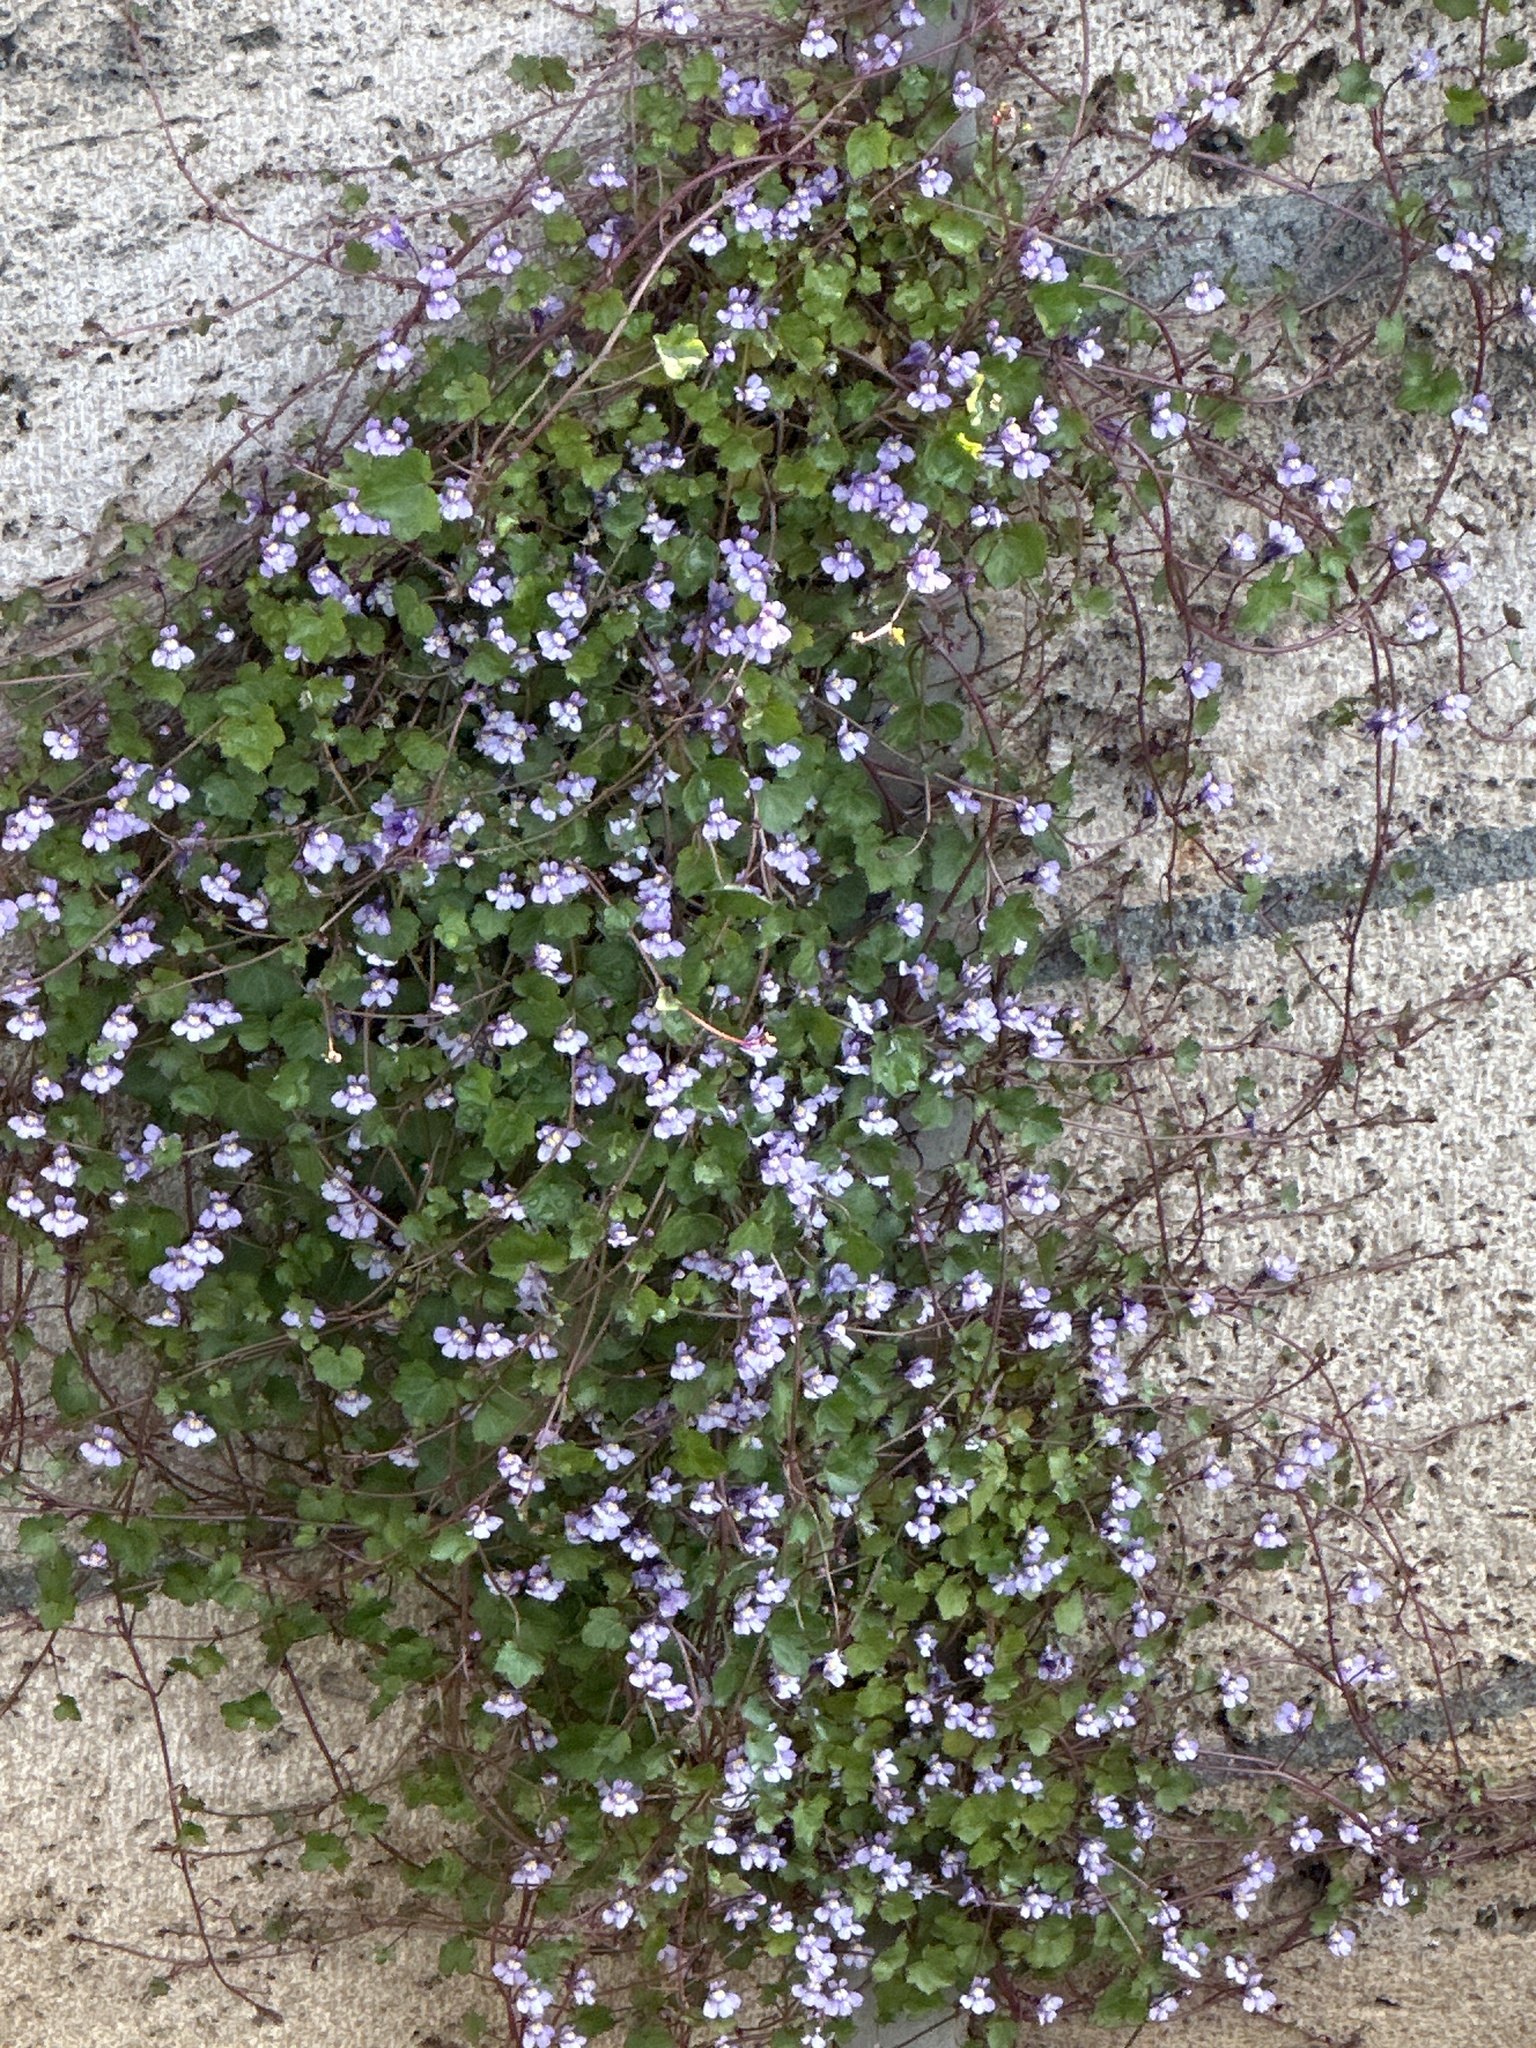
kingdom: Plantae
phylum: Tracheophyta
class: Magnoliopsida
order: Lamiales
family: Plantaginaceae
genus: Cymbalaria
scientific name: Cymbalaria muralis
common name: Ivy-leaved toadflax
